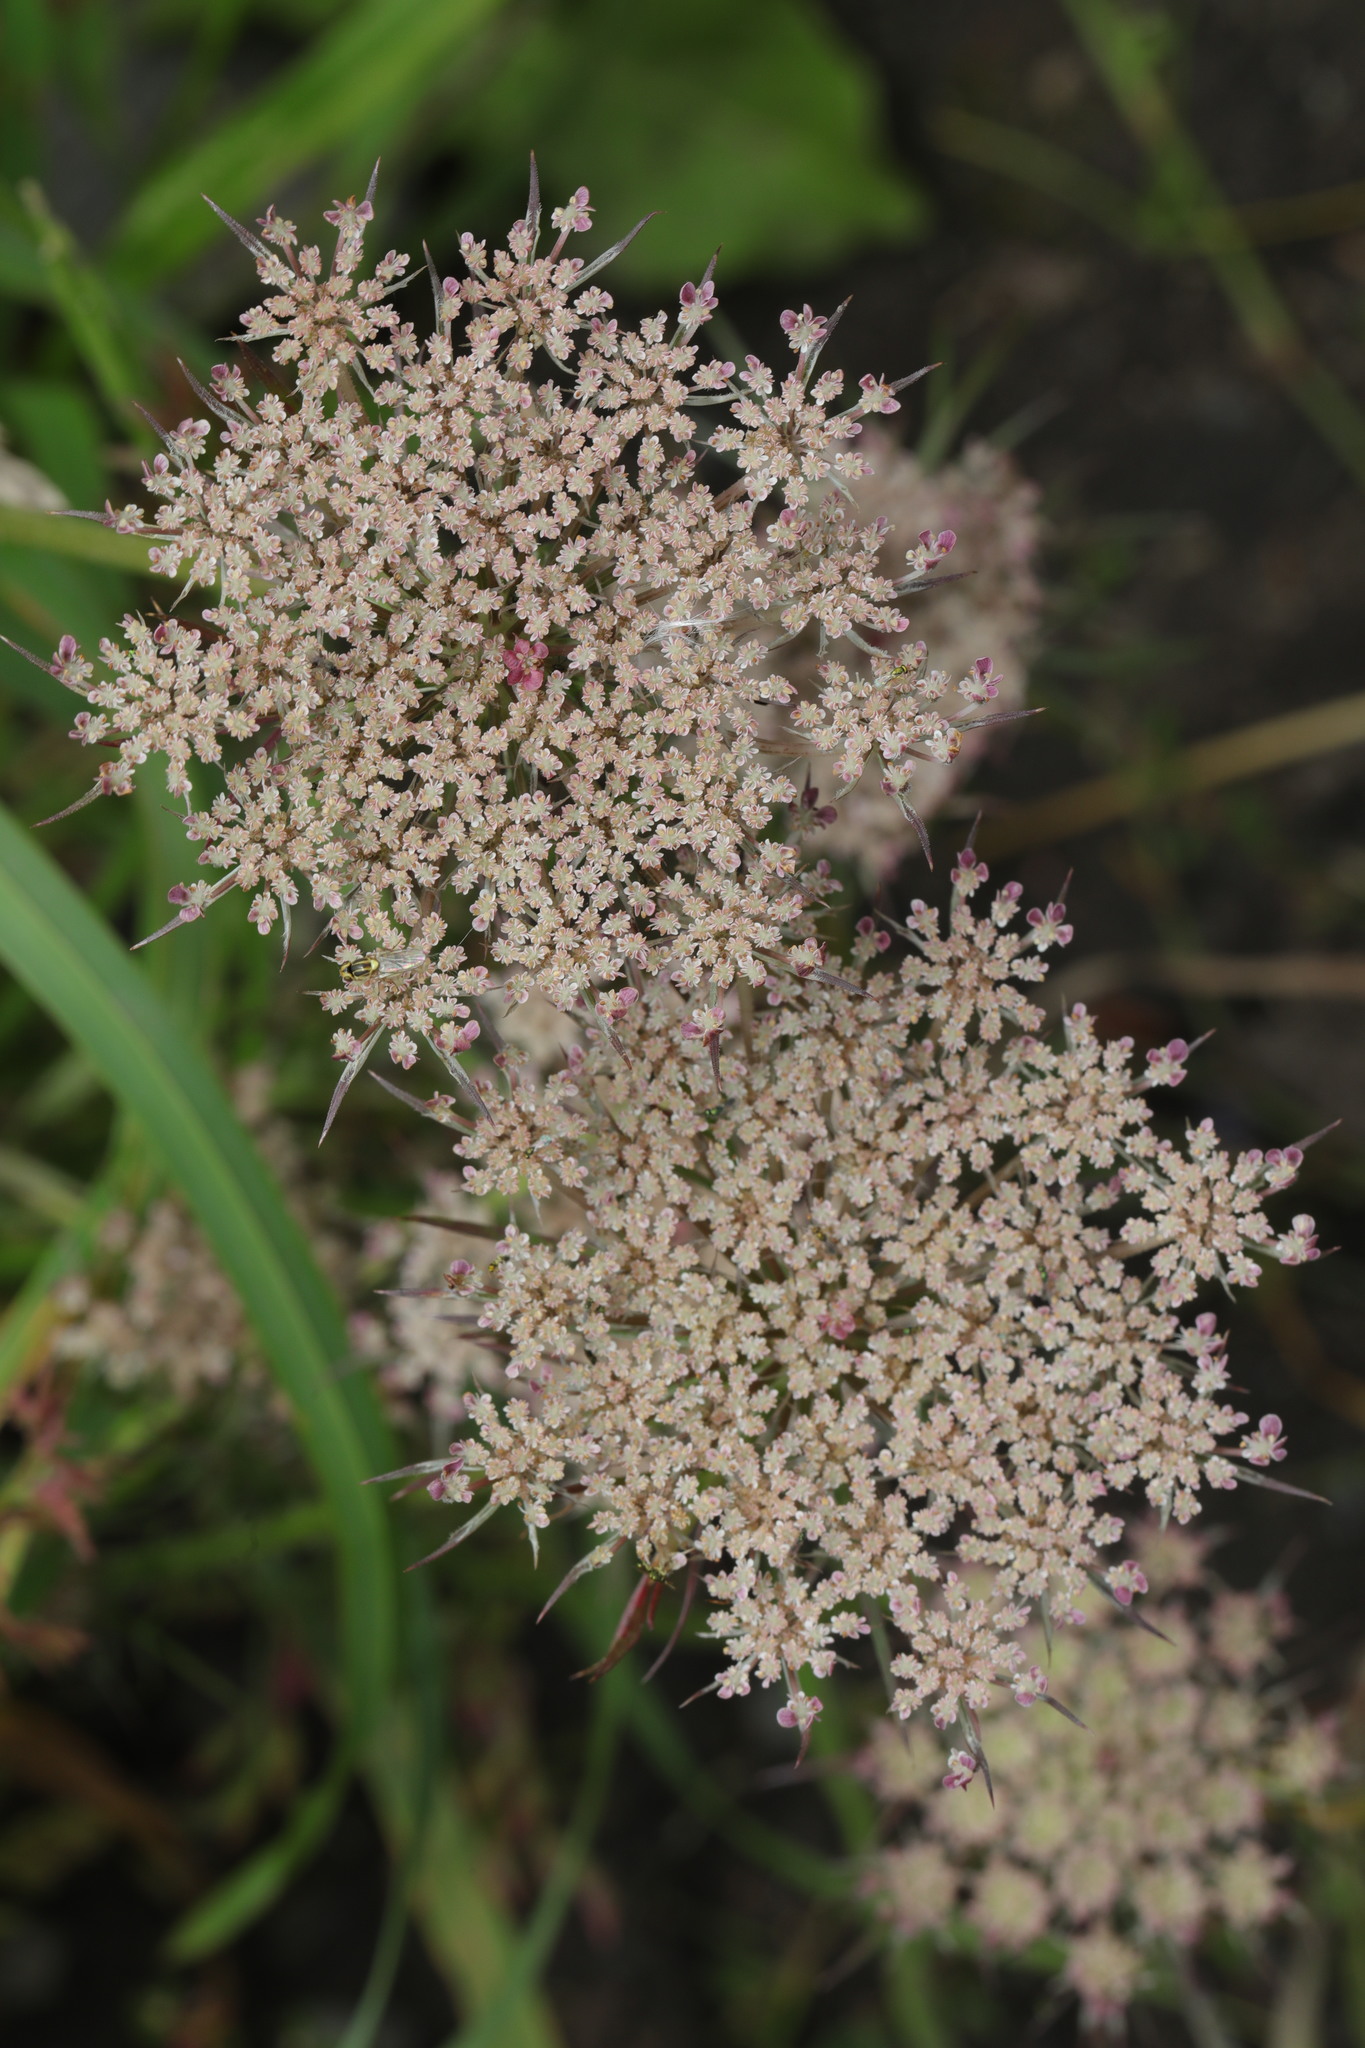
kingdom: Plantae
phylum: Tracheophyta
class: Magnoliopsida
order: Apiales
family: Apiaceae
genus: Daucus
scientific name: Daucus carota
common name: Wild carrot
